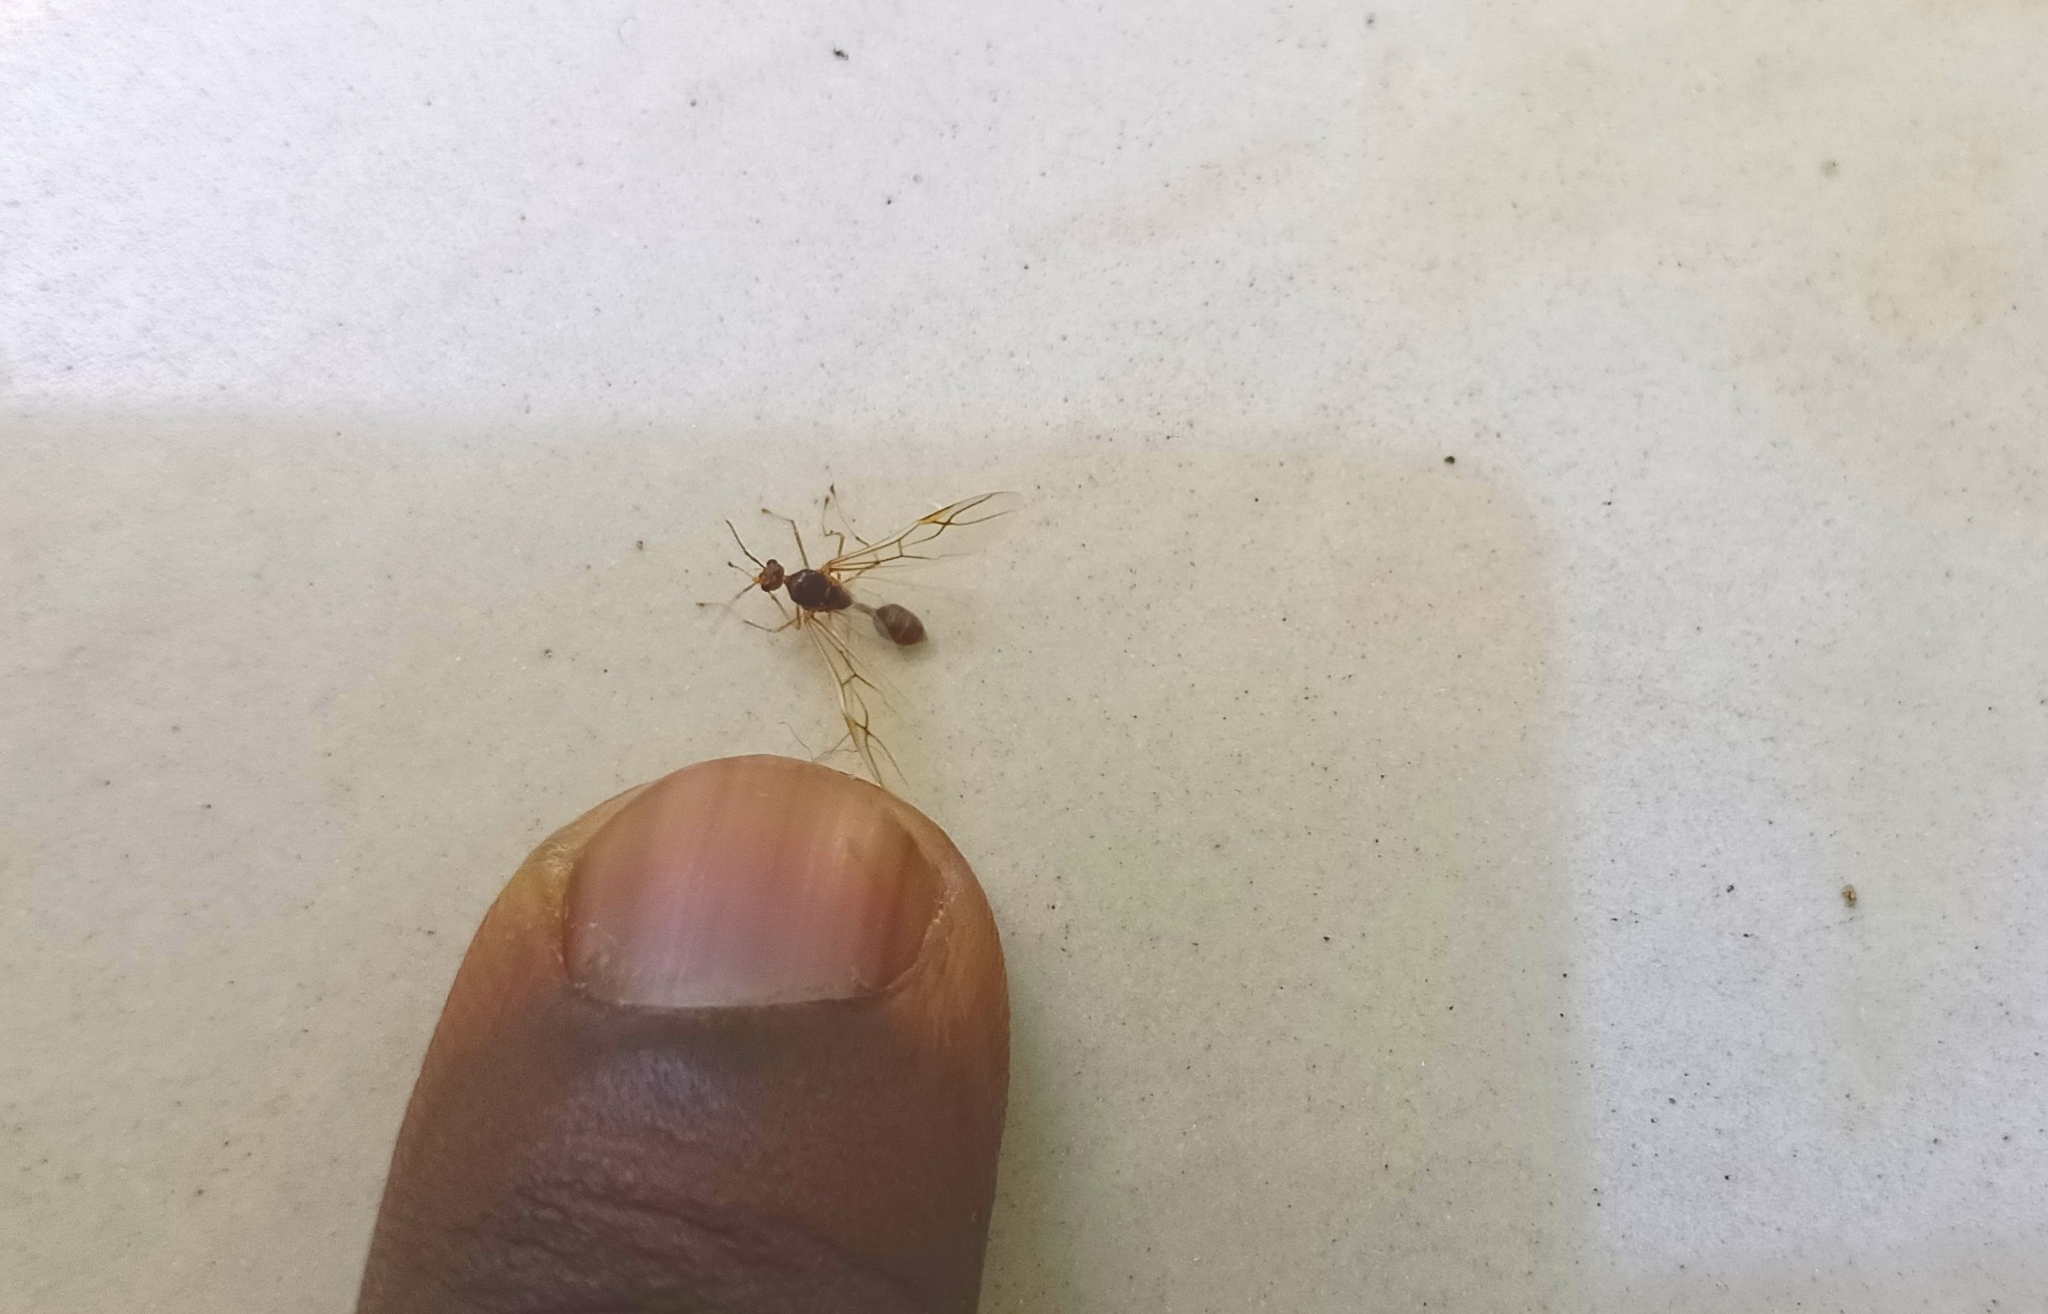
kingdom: Animalia
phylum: Arthropoda
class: Insecta
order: Hymenoptera
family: Formicidae
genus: Oecophylla
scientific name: Oecophylla smaragdina
